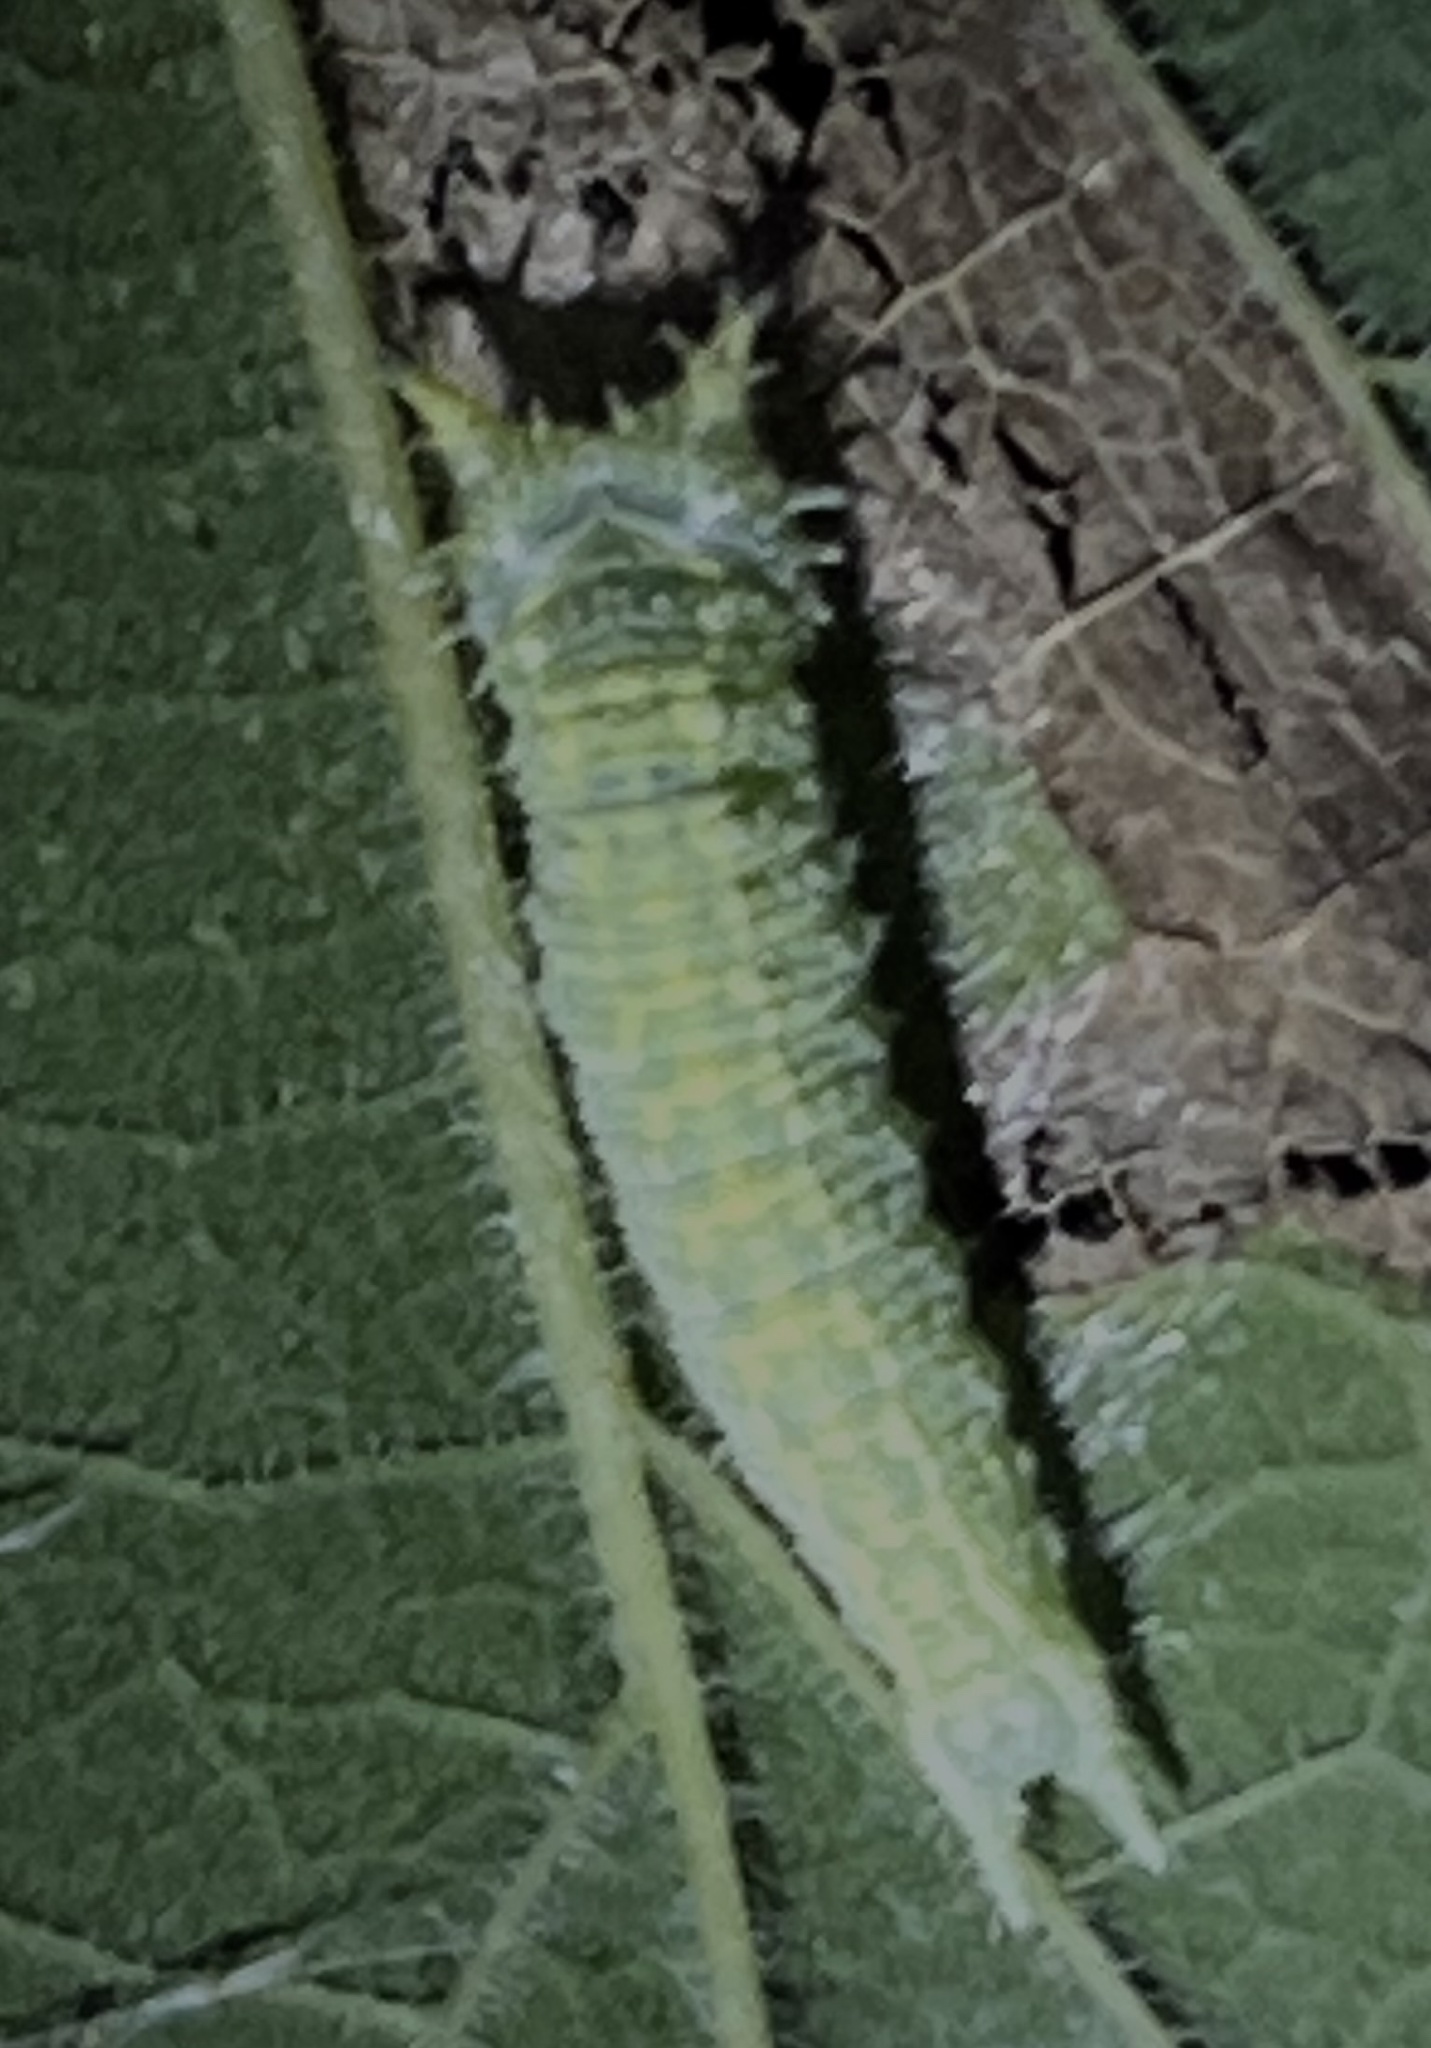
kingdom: Animalia
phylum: Arthropoda
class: Insecta
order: Lepidoptera
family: Nymphalidae
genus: Asterocampa
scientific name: Asterocampa celtis
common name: Hackberry emperor
